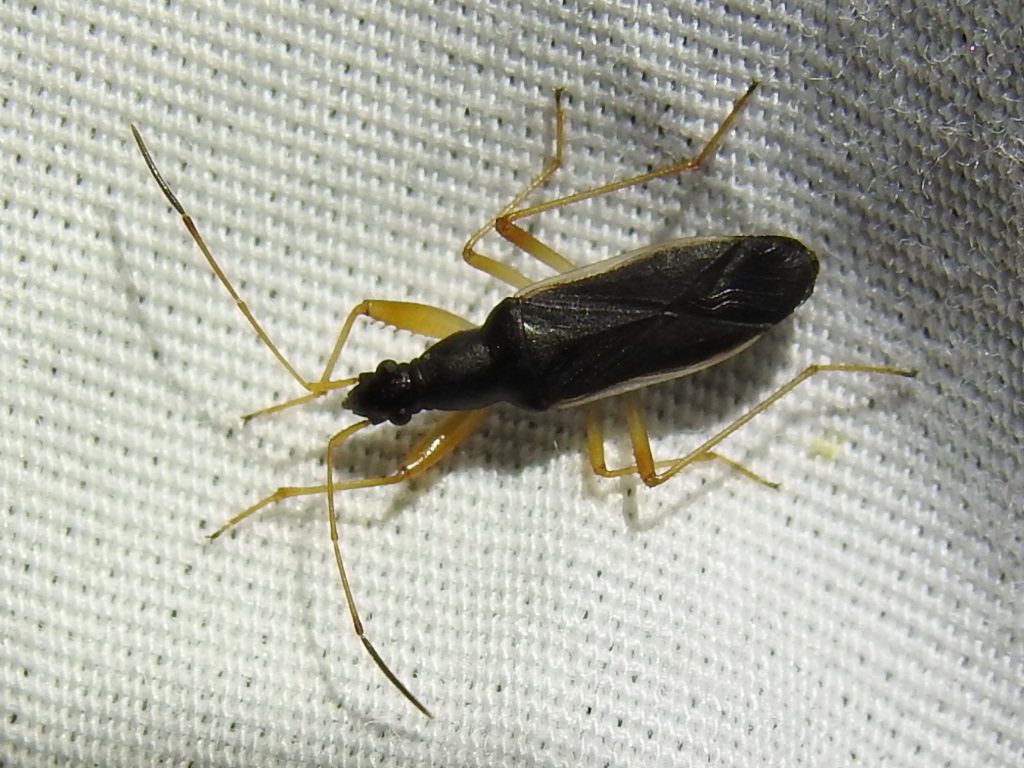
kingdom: Animalia
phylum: Arthropoda
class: Insecta
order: Hemiptera
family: Rhyparochromidae
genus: Cnemodus
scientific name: Cnemodus mavortius
